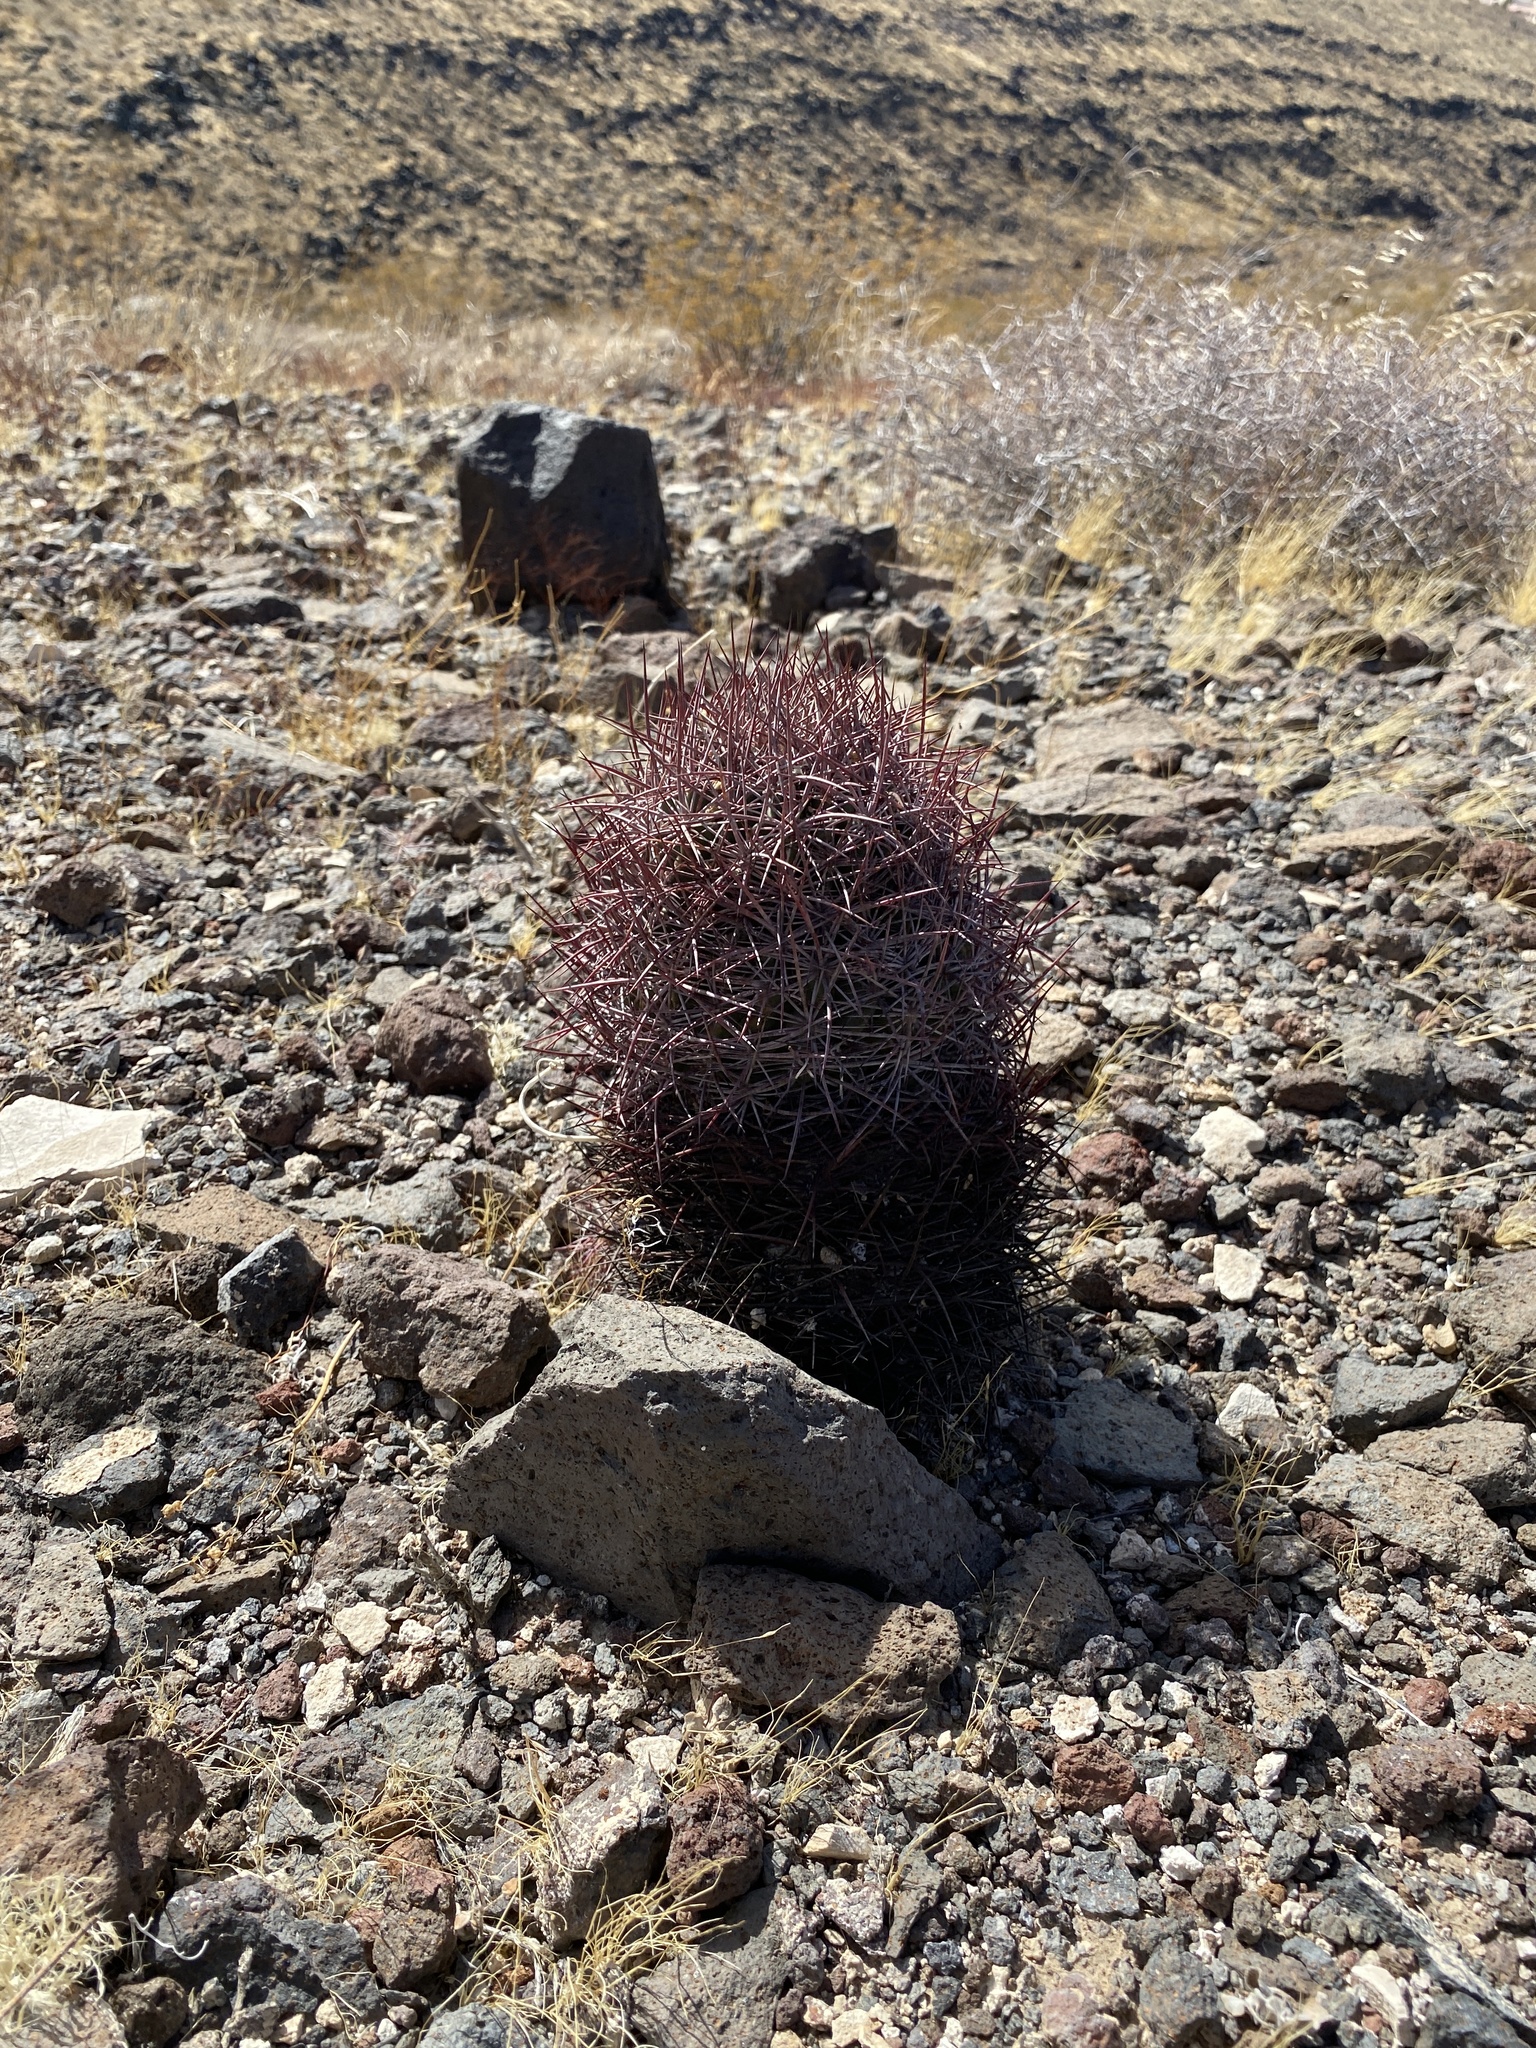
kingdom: Plantae
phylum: Tracheophyta
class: Magnoliopsida
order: Caryophyllales
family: Cactaceae
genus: Sclerocactus
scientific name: Sclerocactus johnsonii
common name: Eight-spine fishhook cactus
